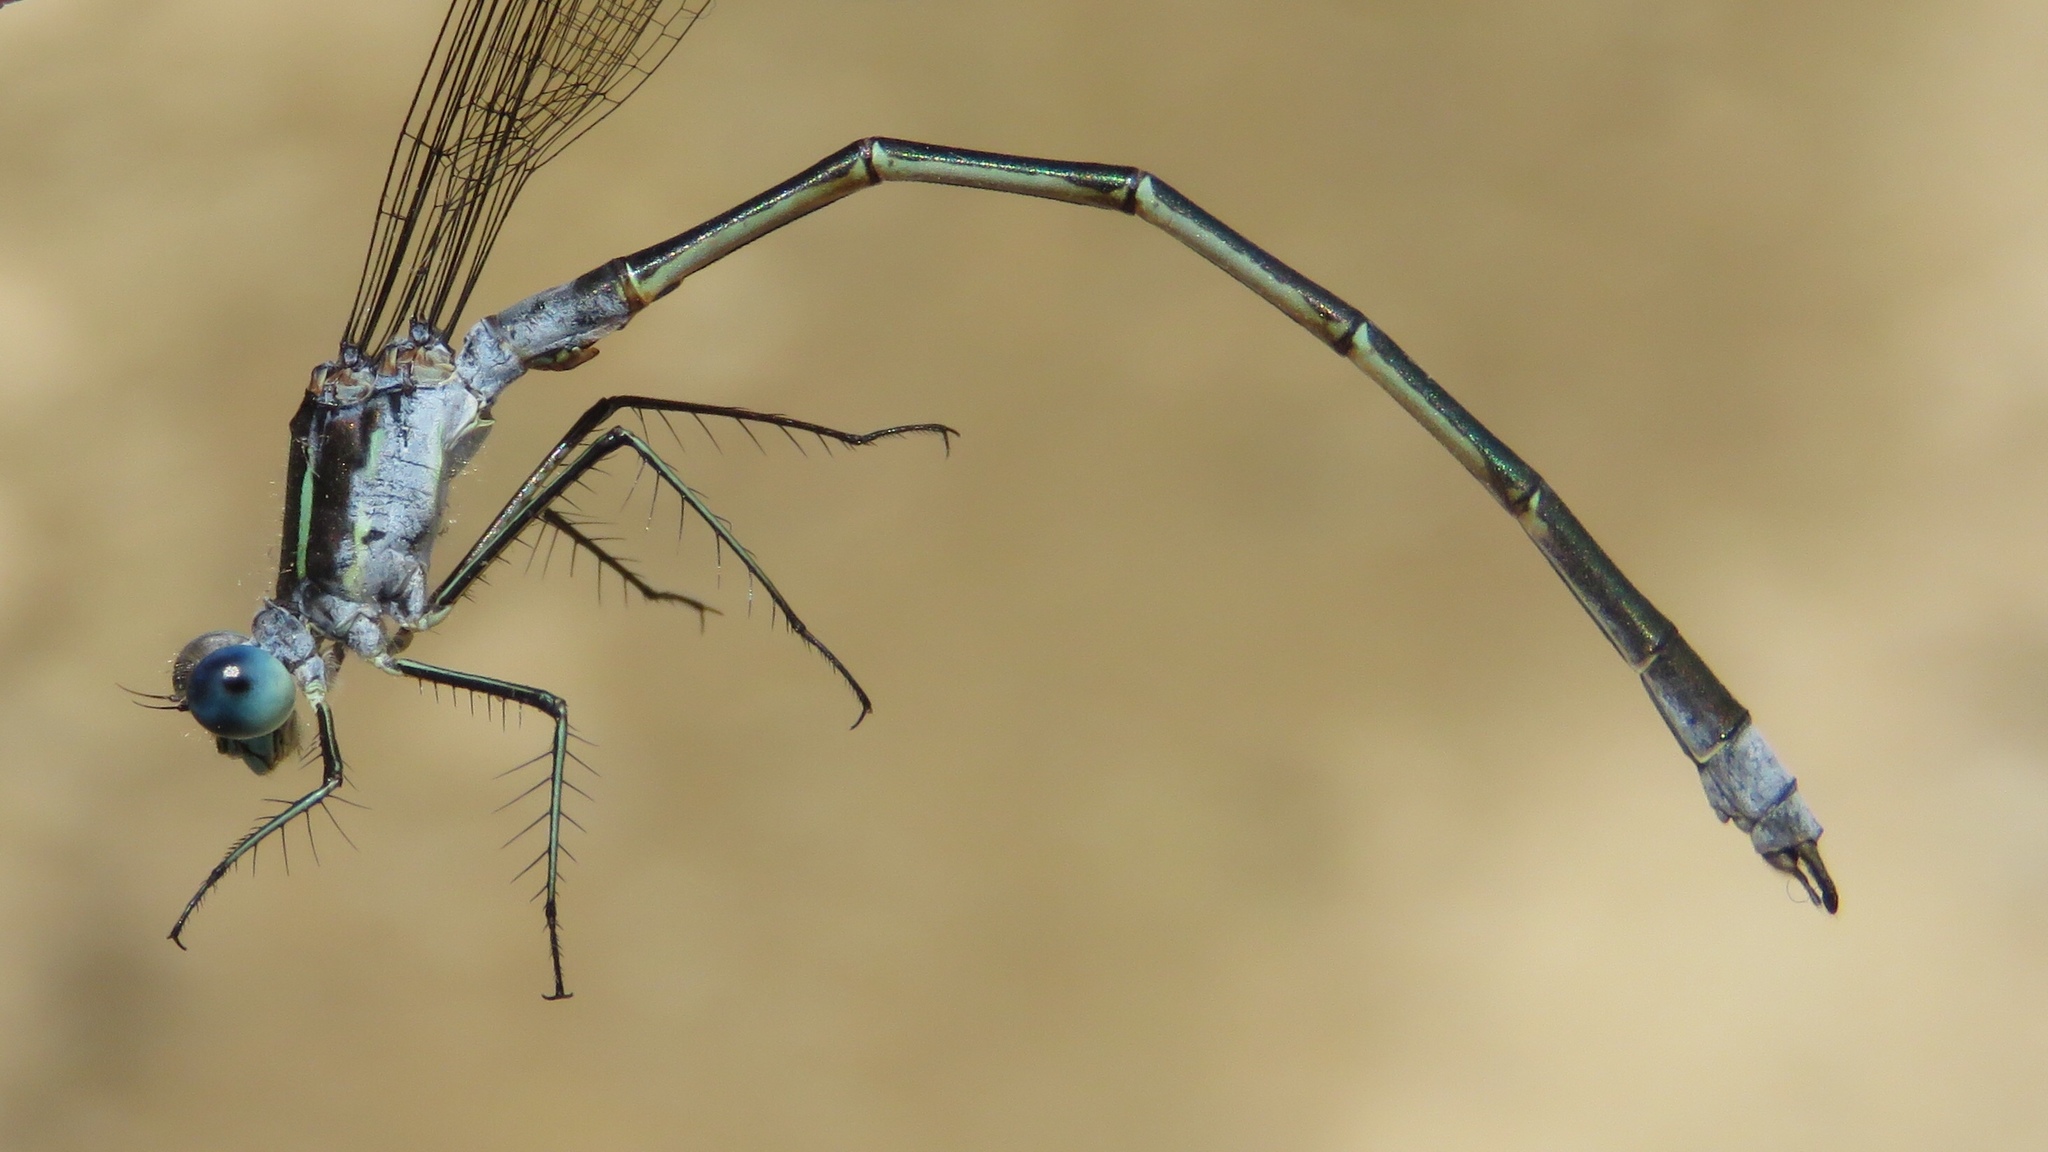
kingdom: Animalia
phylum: Arthropoda
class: Insecta
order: Odonata
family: Lestidae
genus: Lestes
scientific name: Lestes disjunctus
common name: Northern spreadwing
